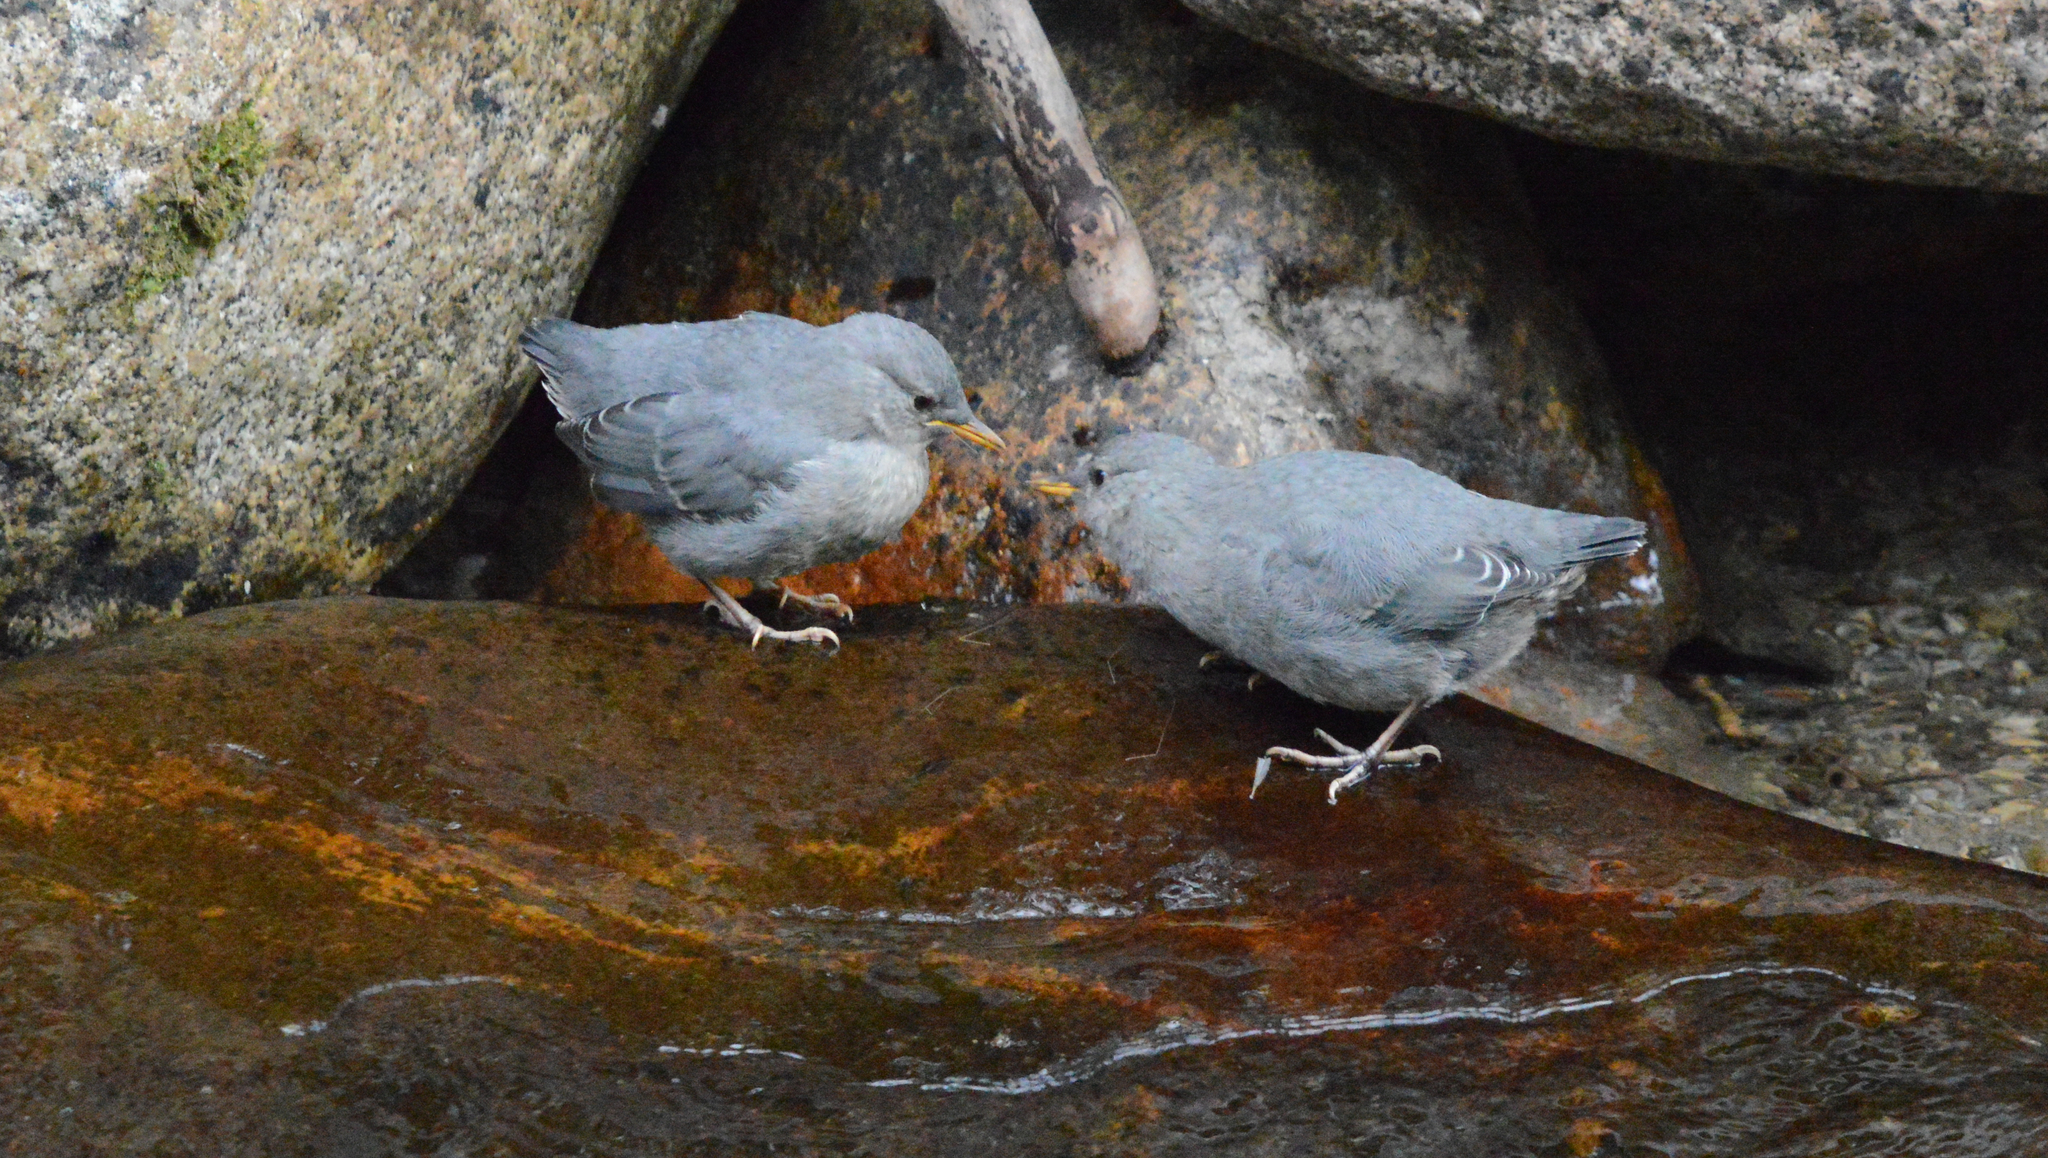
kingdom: Animalia
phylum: Chordata
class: Aves
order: Passeriformes
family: Cinclidae
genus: Cinclus
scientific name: Cinclus mexicanus
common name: American dipper
